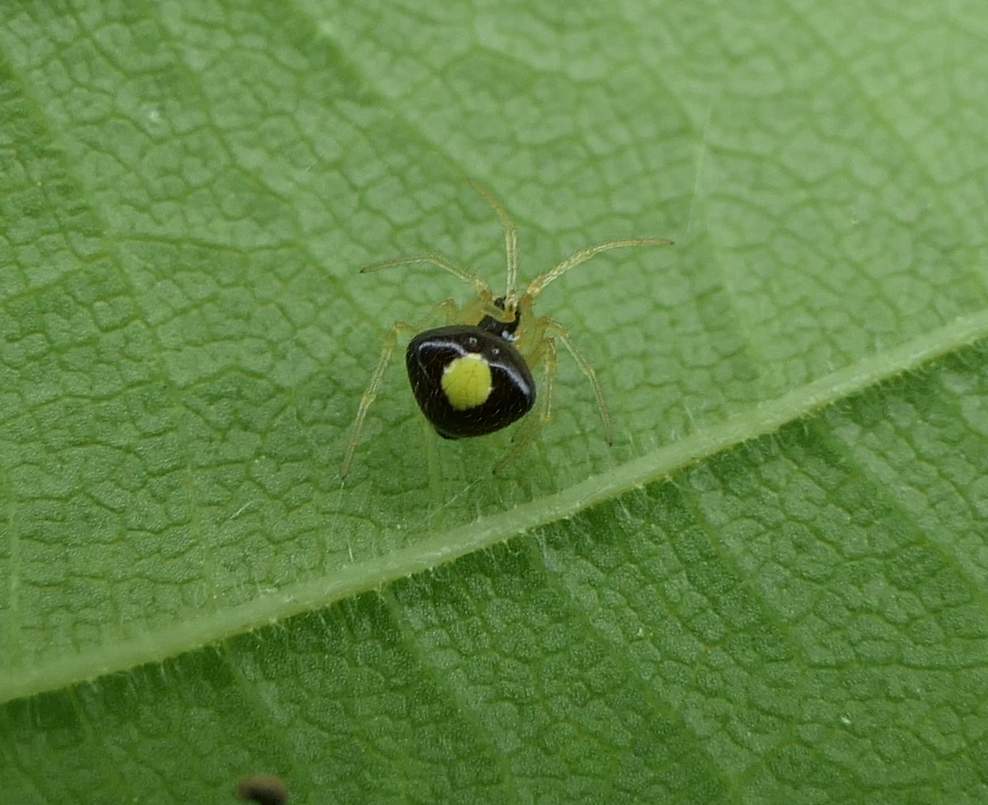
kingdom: Animalia
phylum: Arthropoda
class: Arachnida
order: Araneae
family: Theridiidae
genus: Theridula
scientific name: Theridula emertoni
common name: Emerton's bitubercled cobweaver
